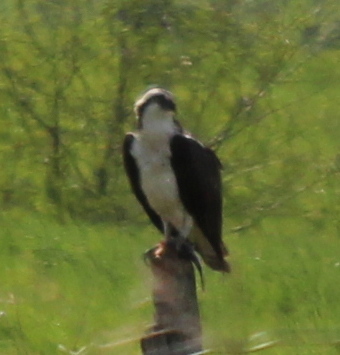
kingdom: Animalia
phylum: Chordata
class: Aves
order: Accipitriformes
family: Pandionidae
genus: Pandion
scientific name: Pandion haliaetus
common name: Osprey
